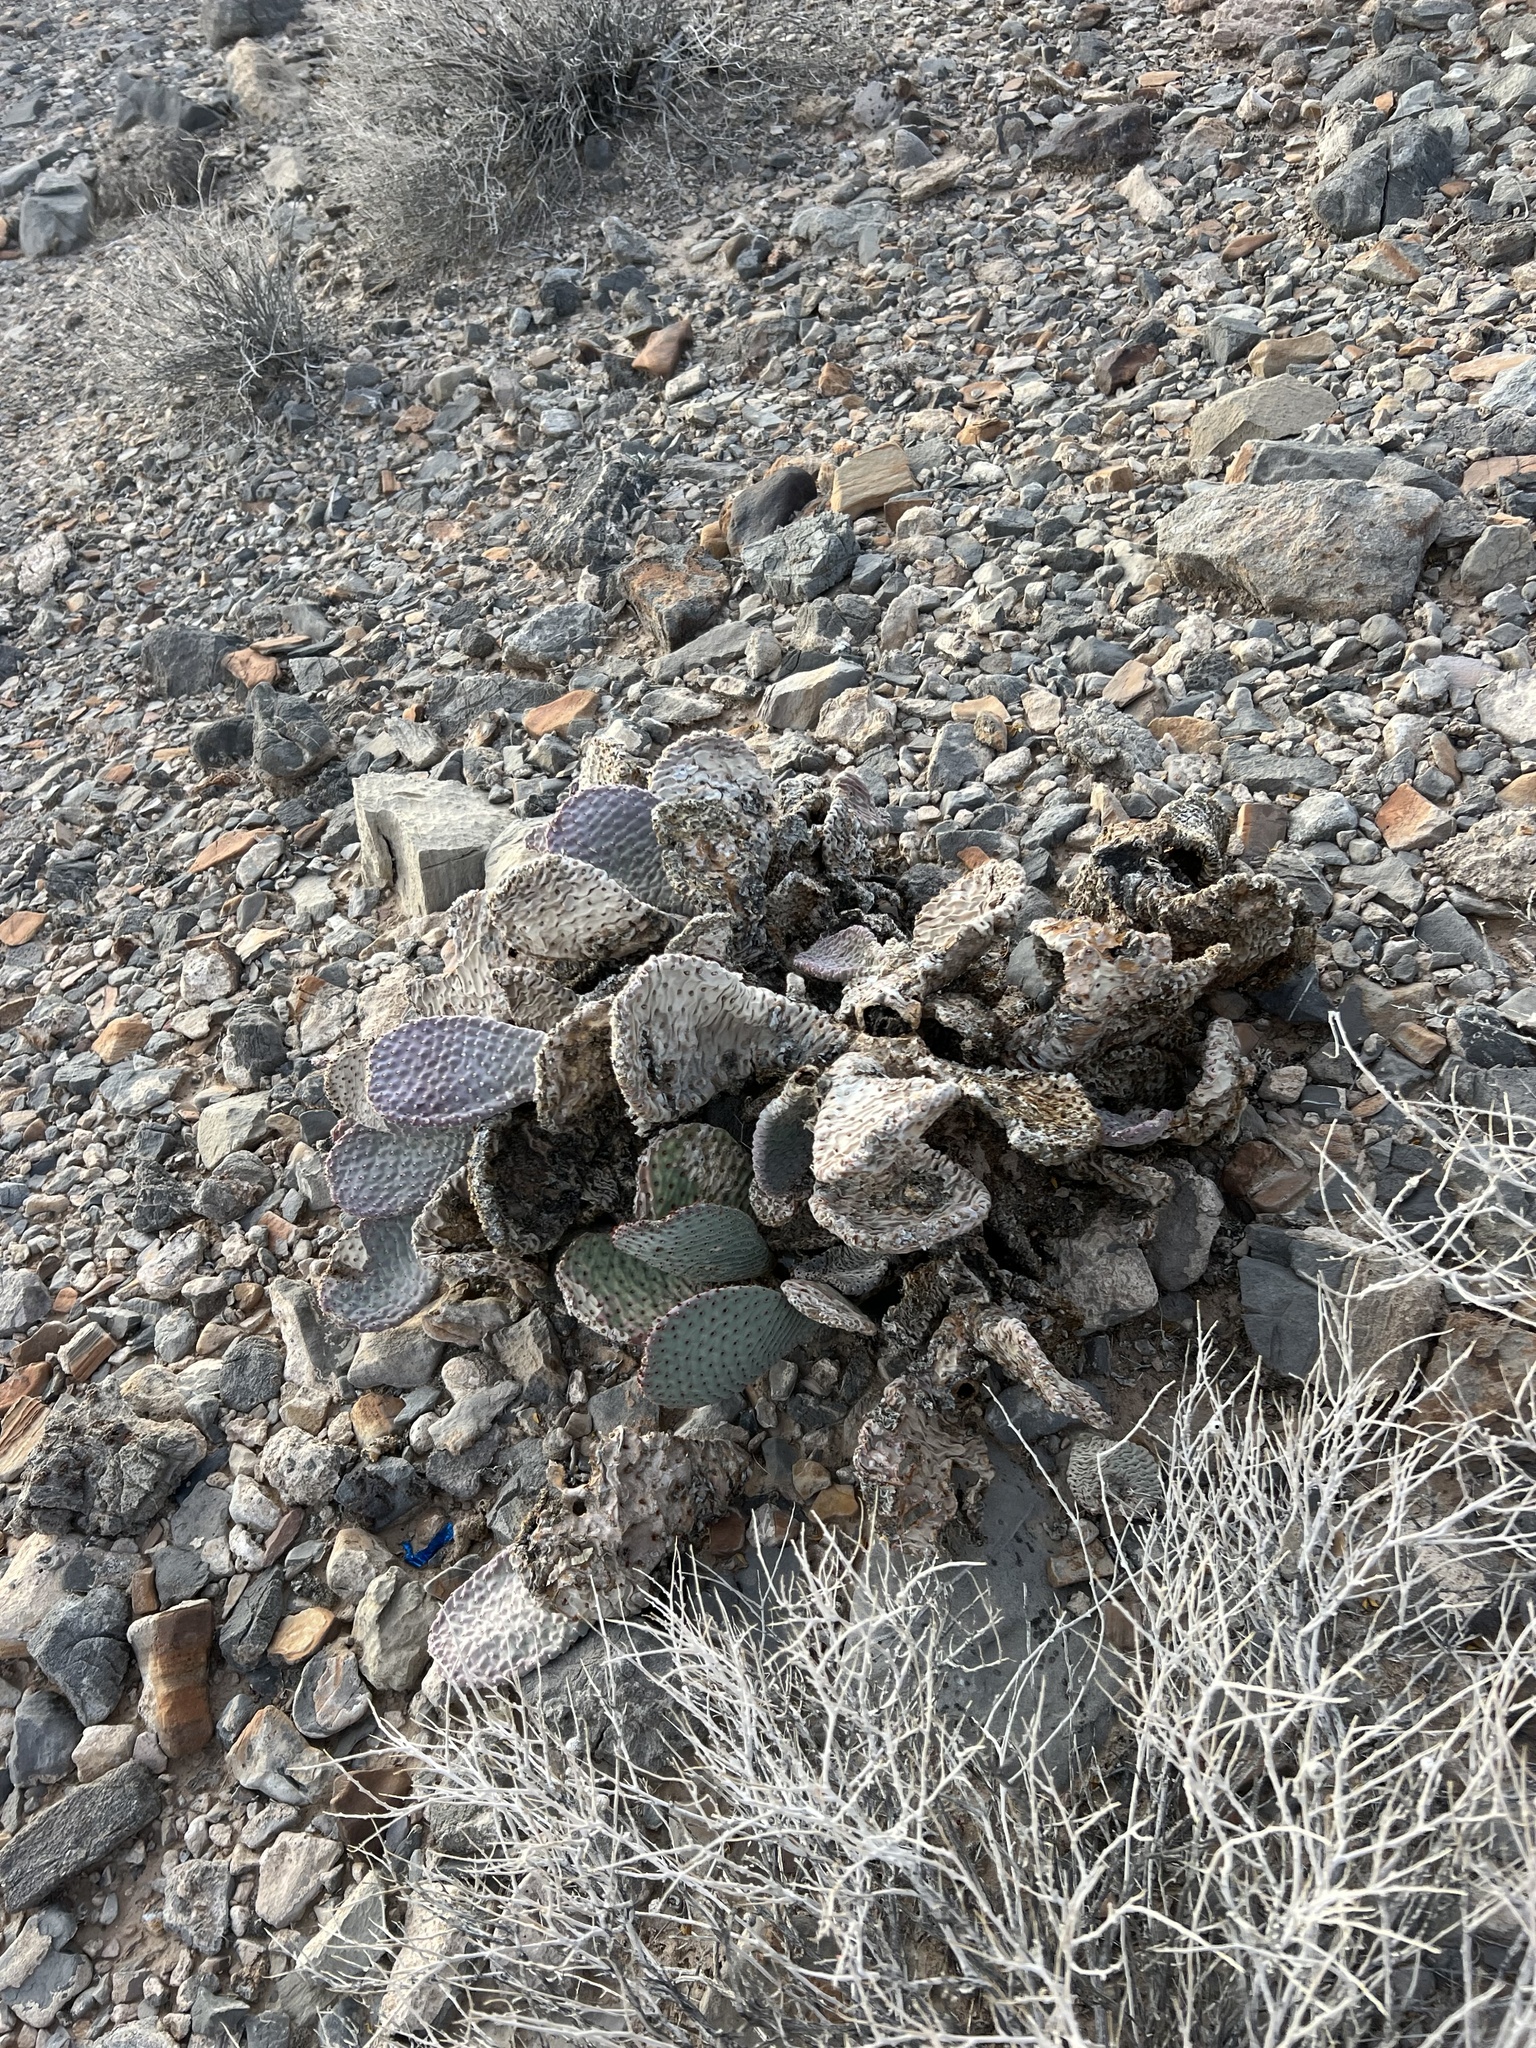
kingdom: Plantae
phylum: Tracheophyta
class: Magnoliopsida
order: Caryophyllales
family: Cactaceae
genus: Opuntia
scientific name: Opuntia basilaris
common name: Beavertail prickly-pear
